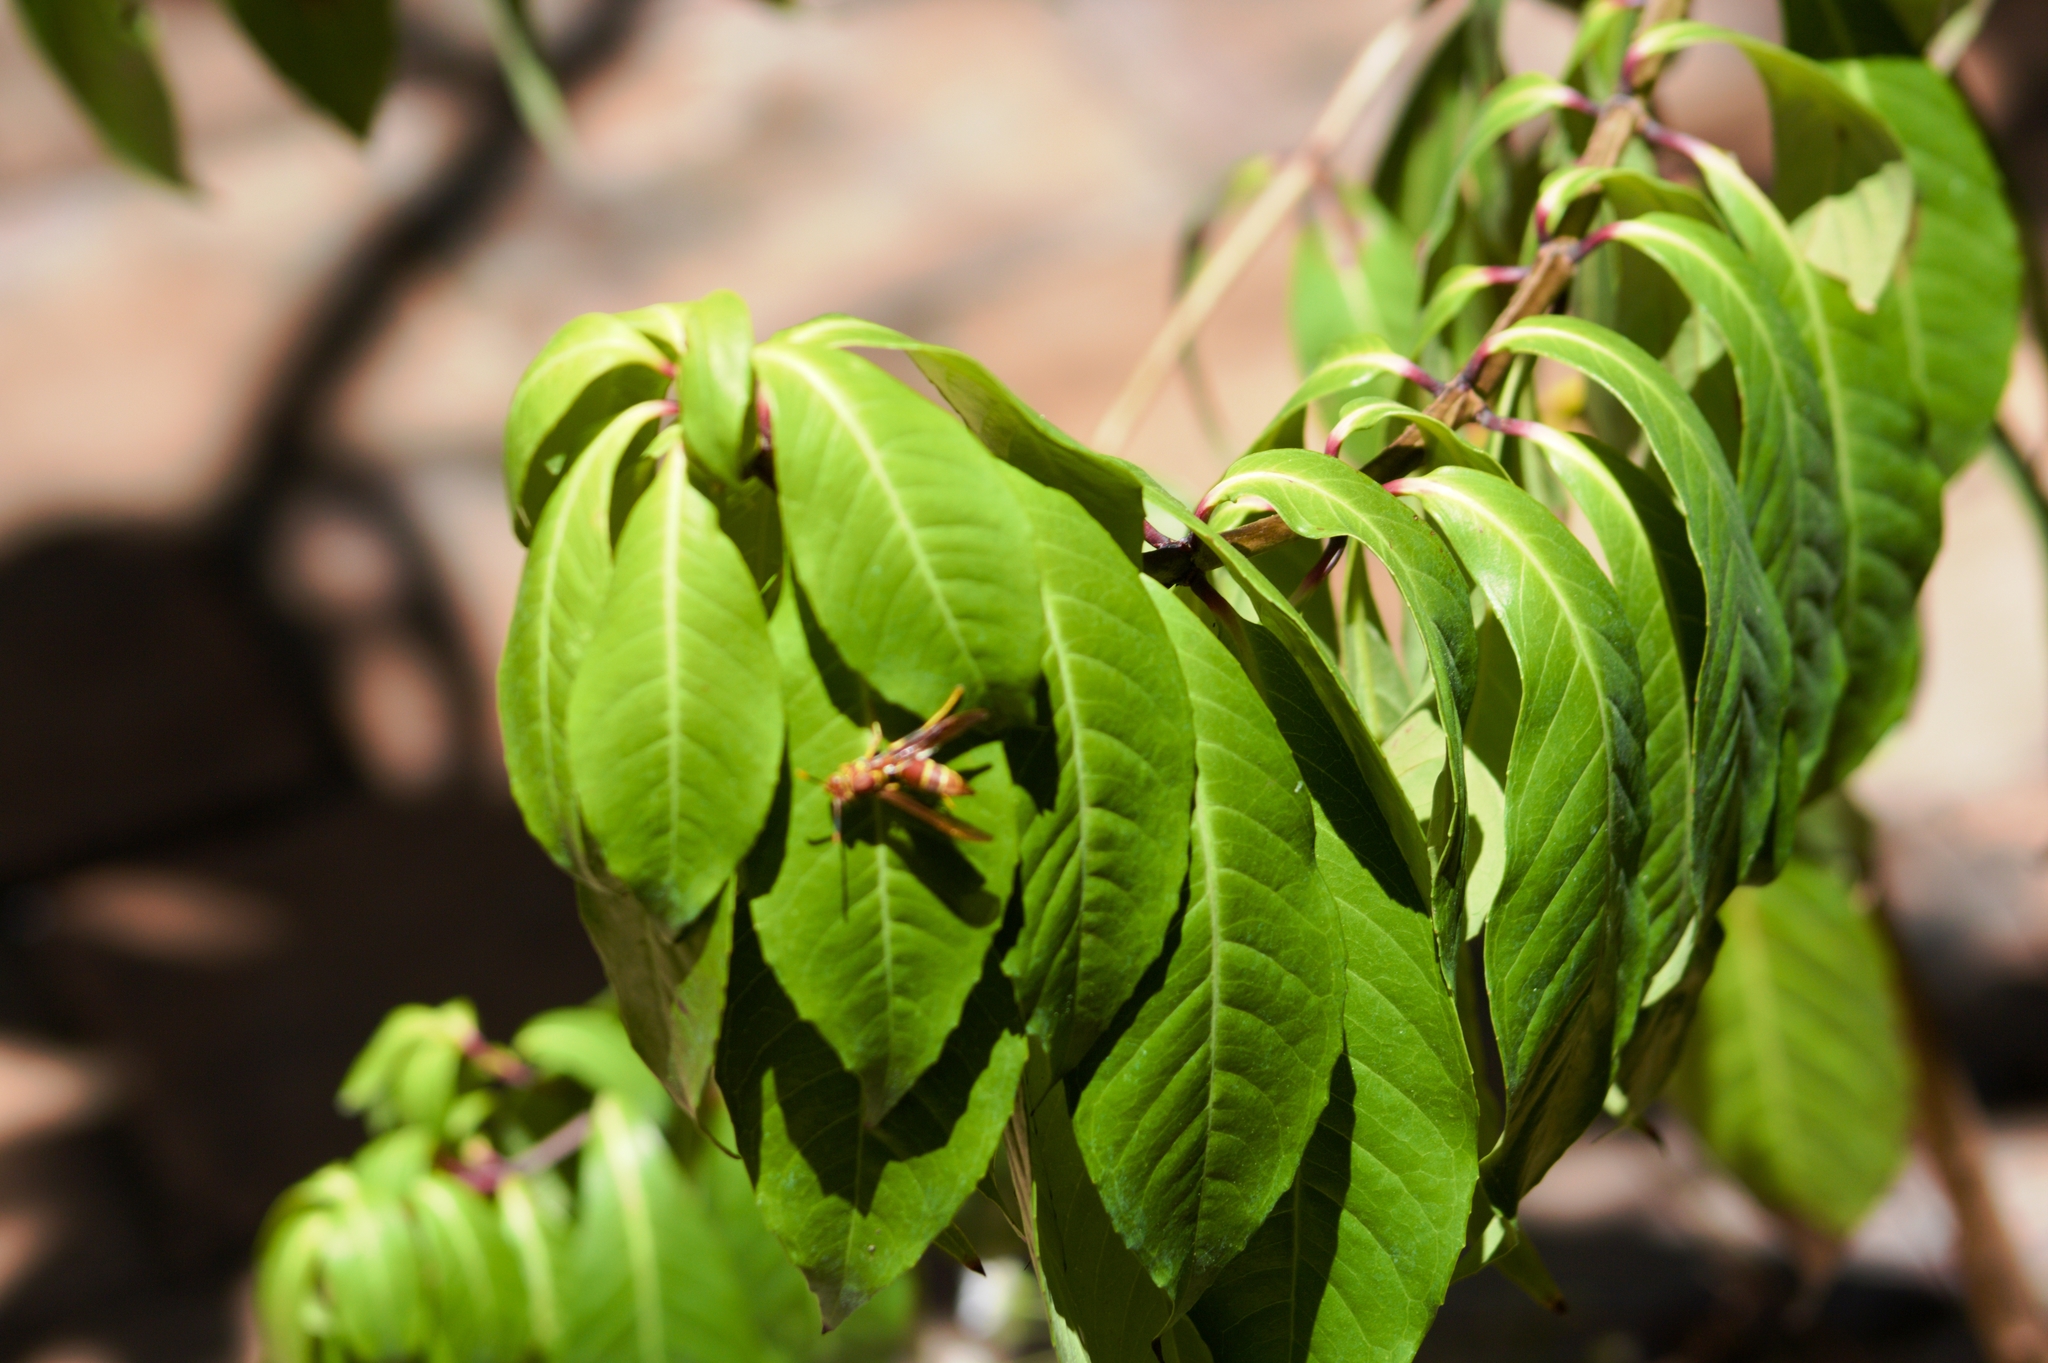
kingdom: Plantae
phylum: Tracheophyta
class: Magnoliopsida
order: Myrtales
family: Onagraceae
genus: Fuchsia
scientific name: Fuchsia paniculata
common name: Shrubby fuchsia
